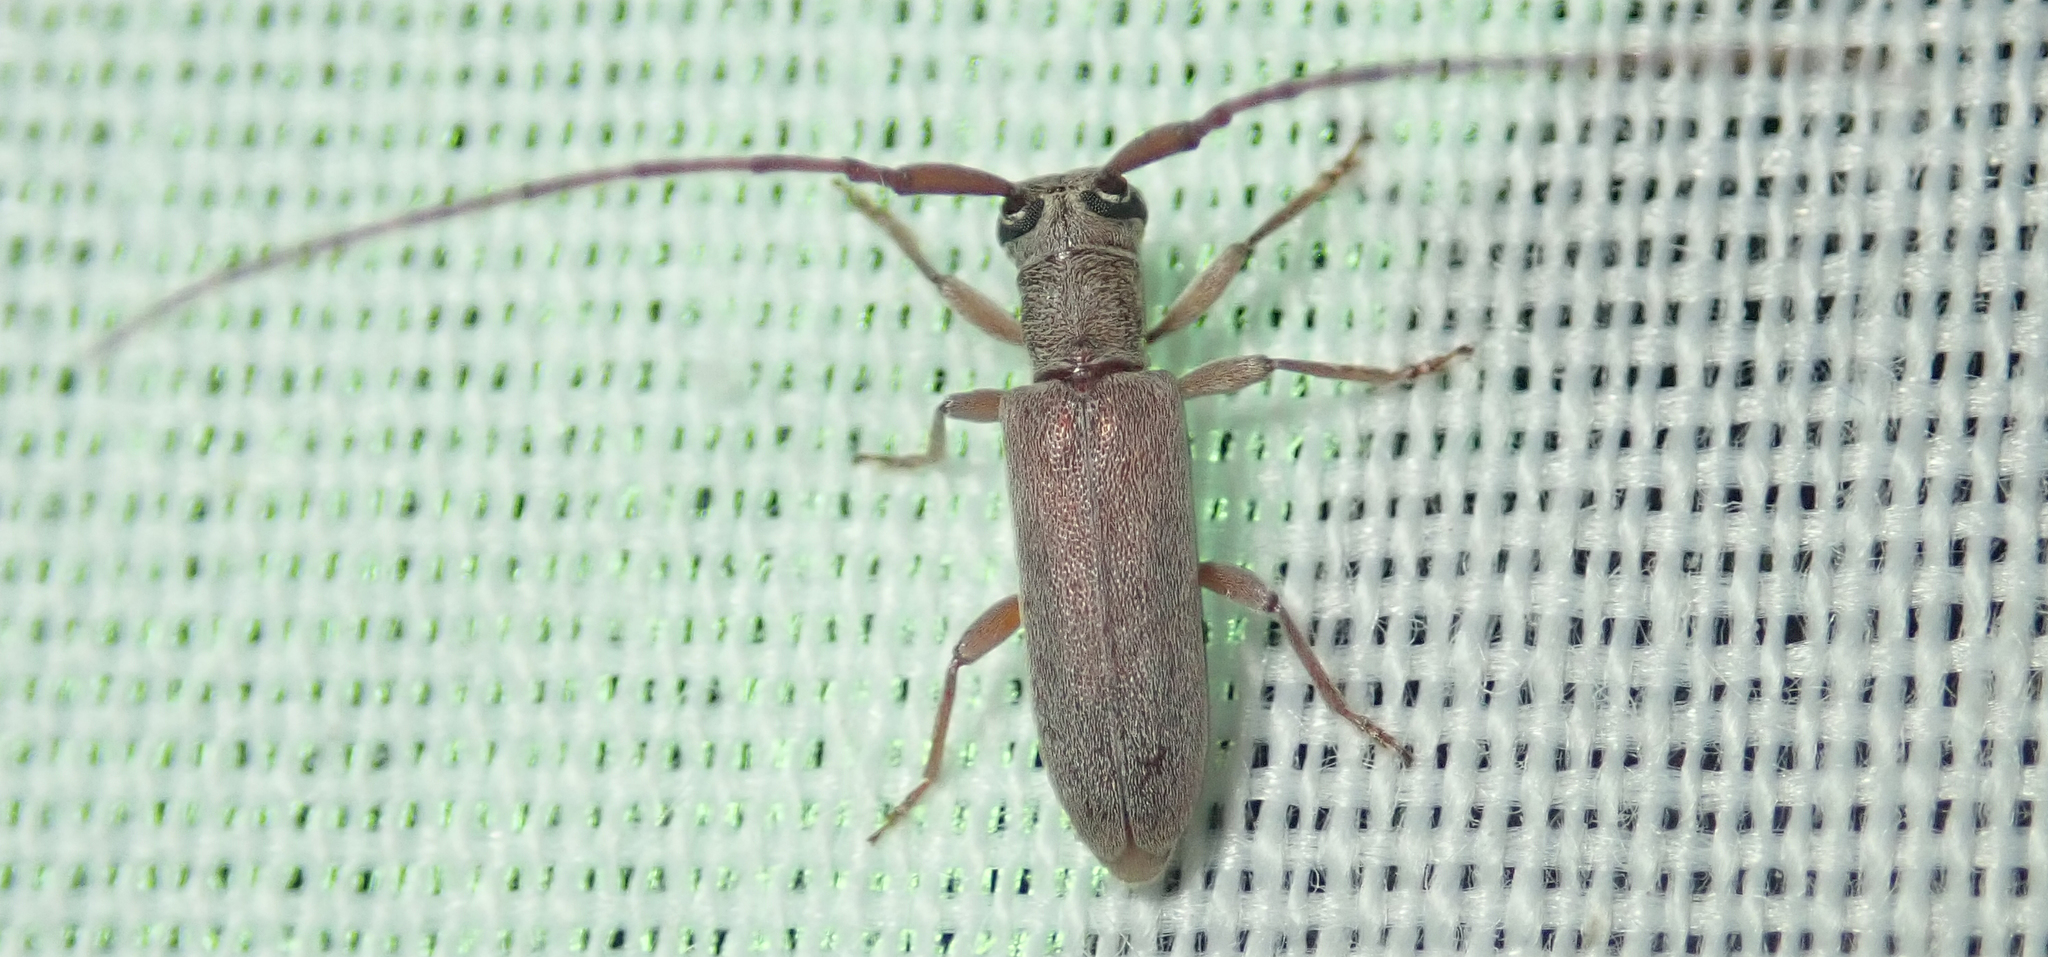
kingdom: Animalia
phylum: Arthropoda
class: Insecta
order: Coleoptera
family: Cerambycidae
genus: Eunidia
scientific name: Eunidia caffra
